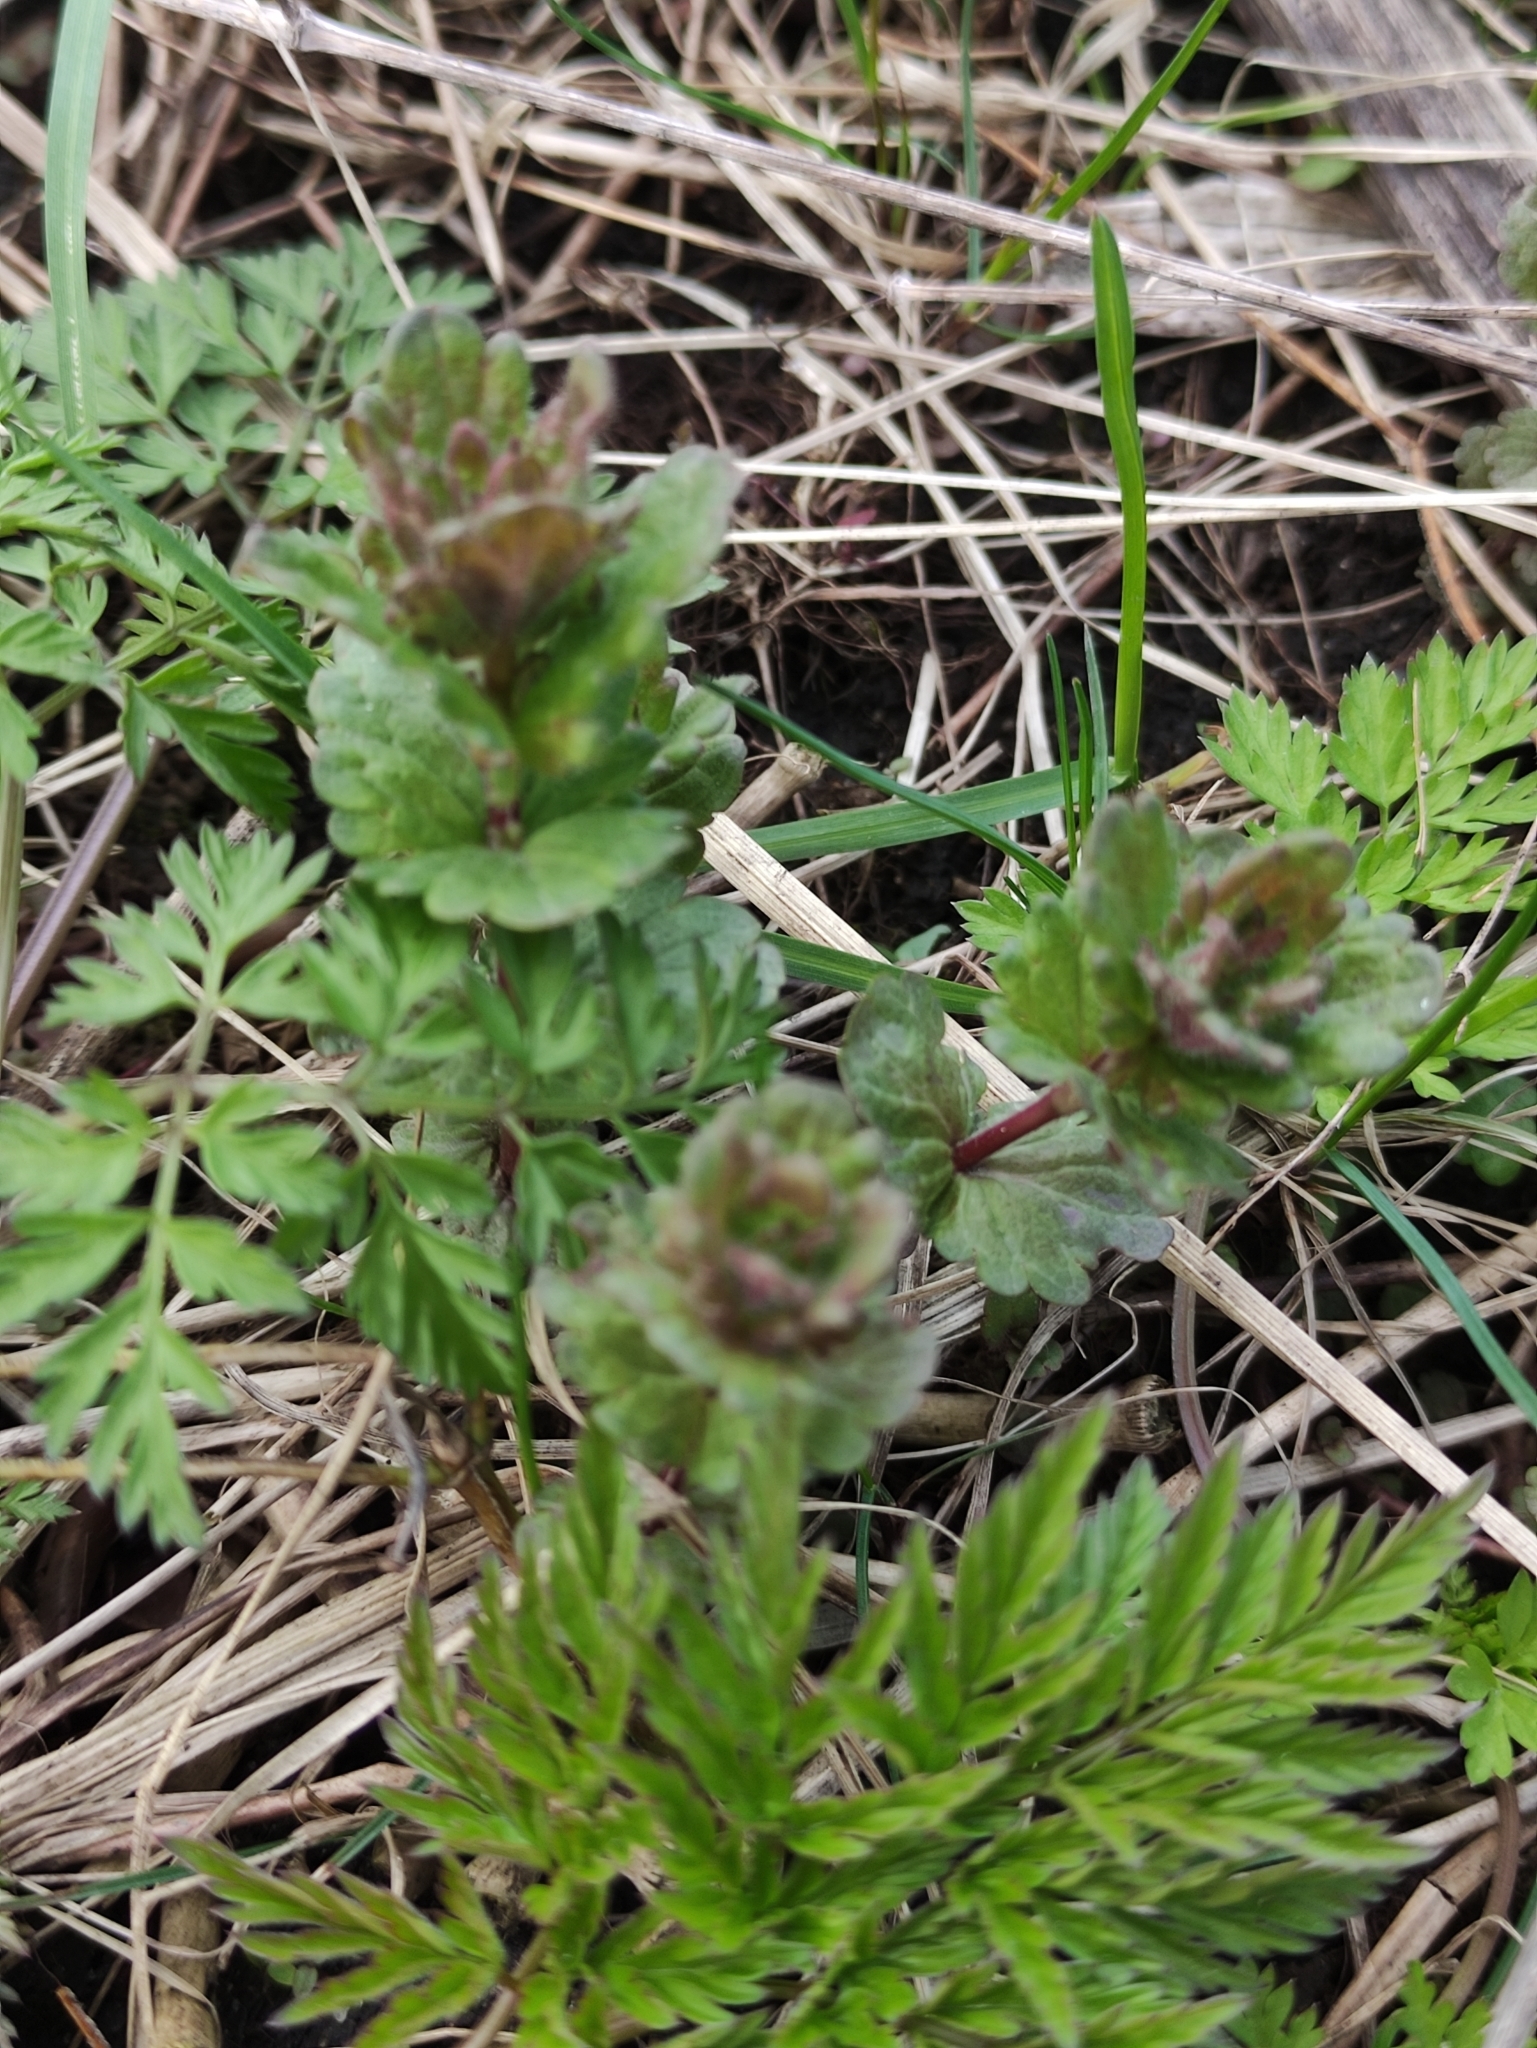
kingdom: Plantae
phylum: Tracheophyta
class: Magnoliopsida
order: Lamiales
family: Plantaginaceae
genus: Veronica
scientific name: Veronica chamaedrys
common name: Germander speedwell
